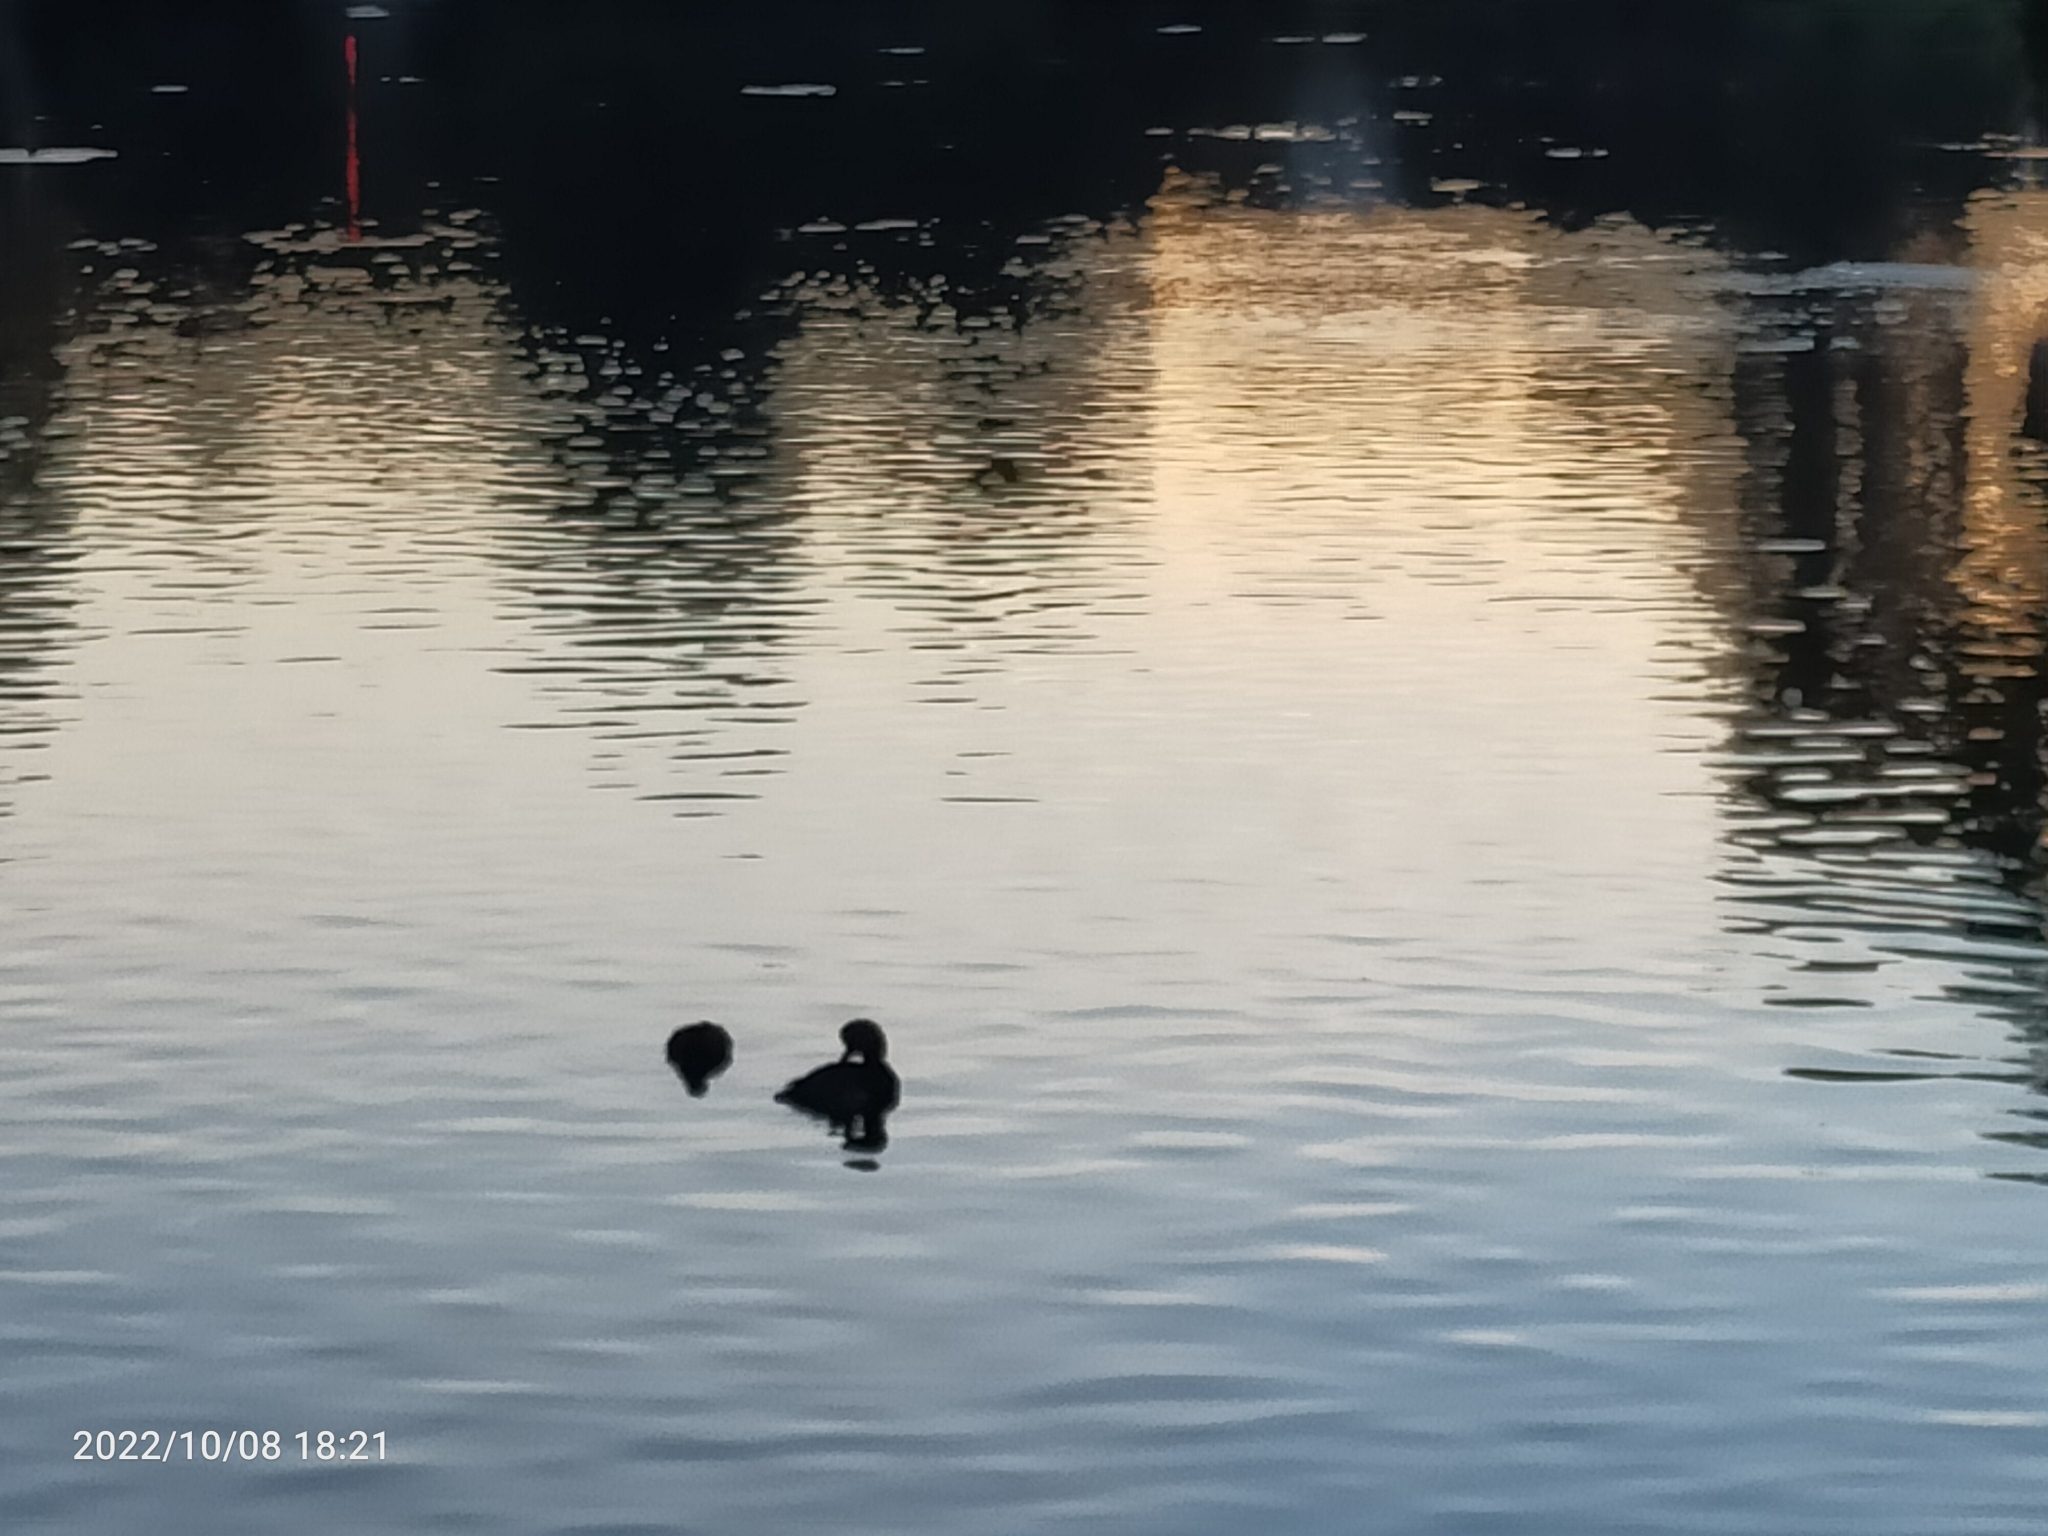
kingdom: Animalia
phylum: Chordata
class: Aves
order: Anseriformes
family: Anatidae
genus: Netta
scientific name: Netta rufina
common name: Red-crested pochard
